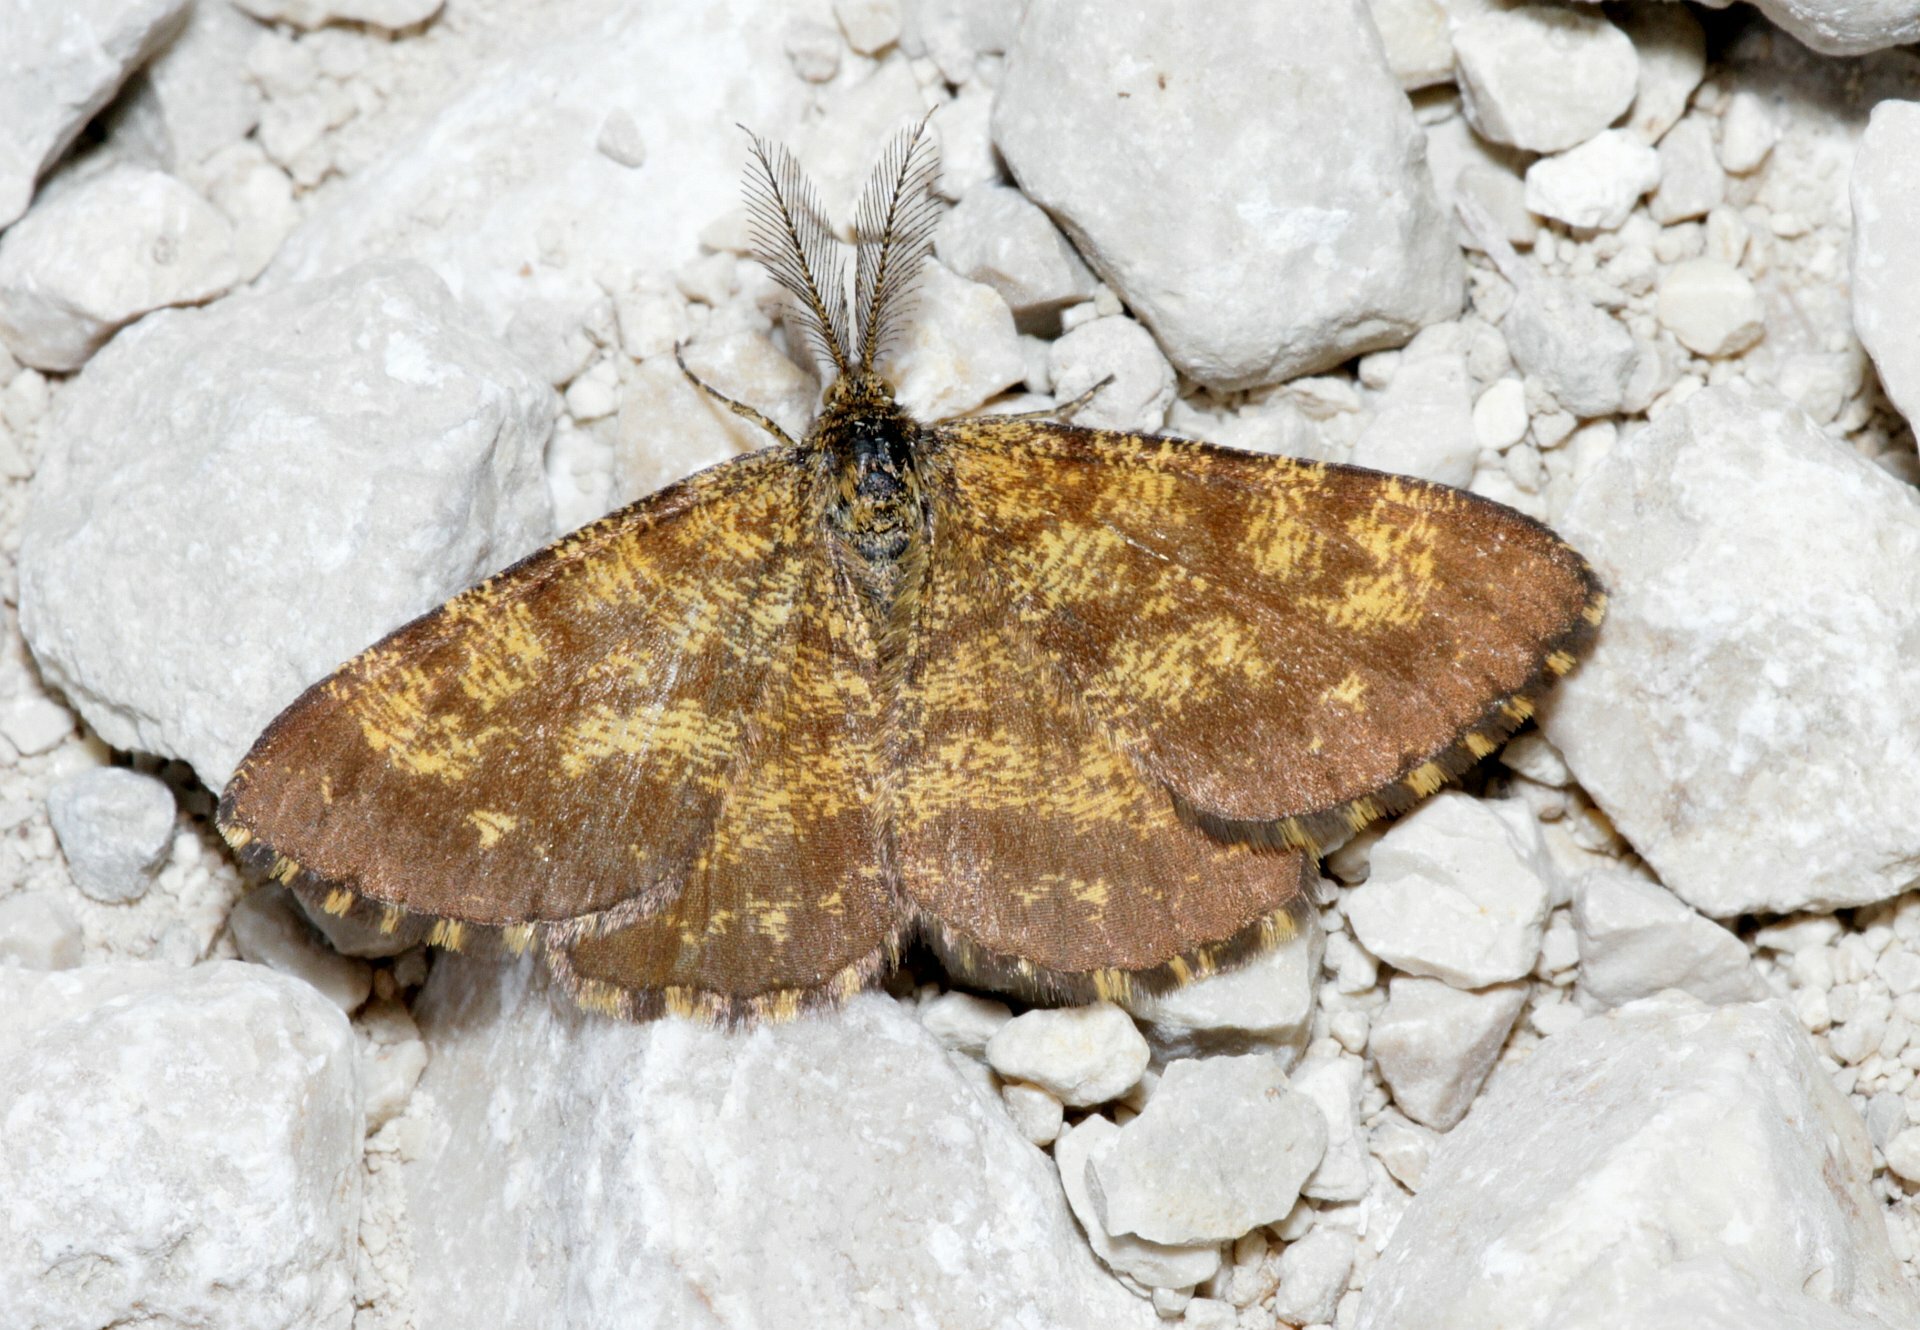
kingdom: Animalia
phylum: Arthropoda
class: Insecta
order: Lepidoptera
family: Geometridae
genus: Ematurga
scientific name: Ematurga atomaria
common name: Common heath
